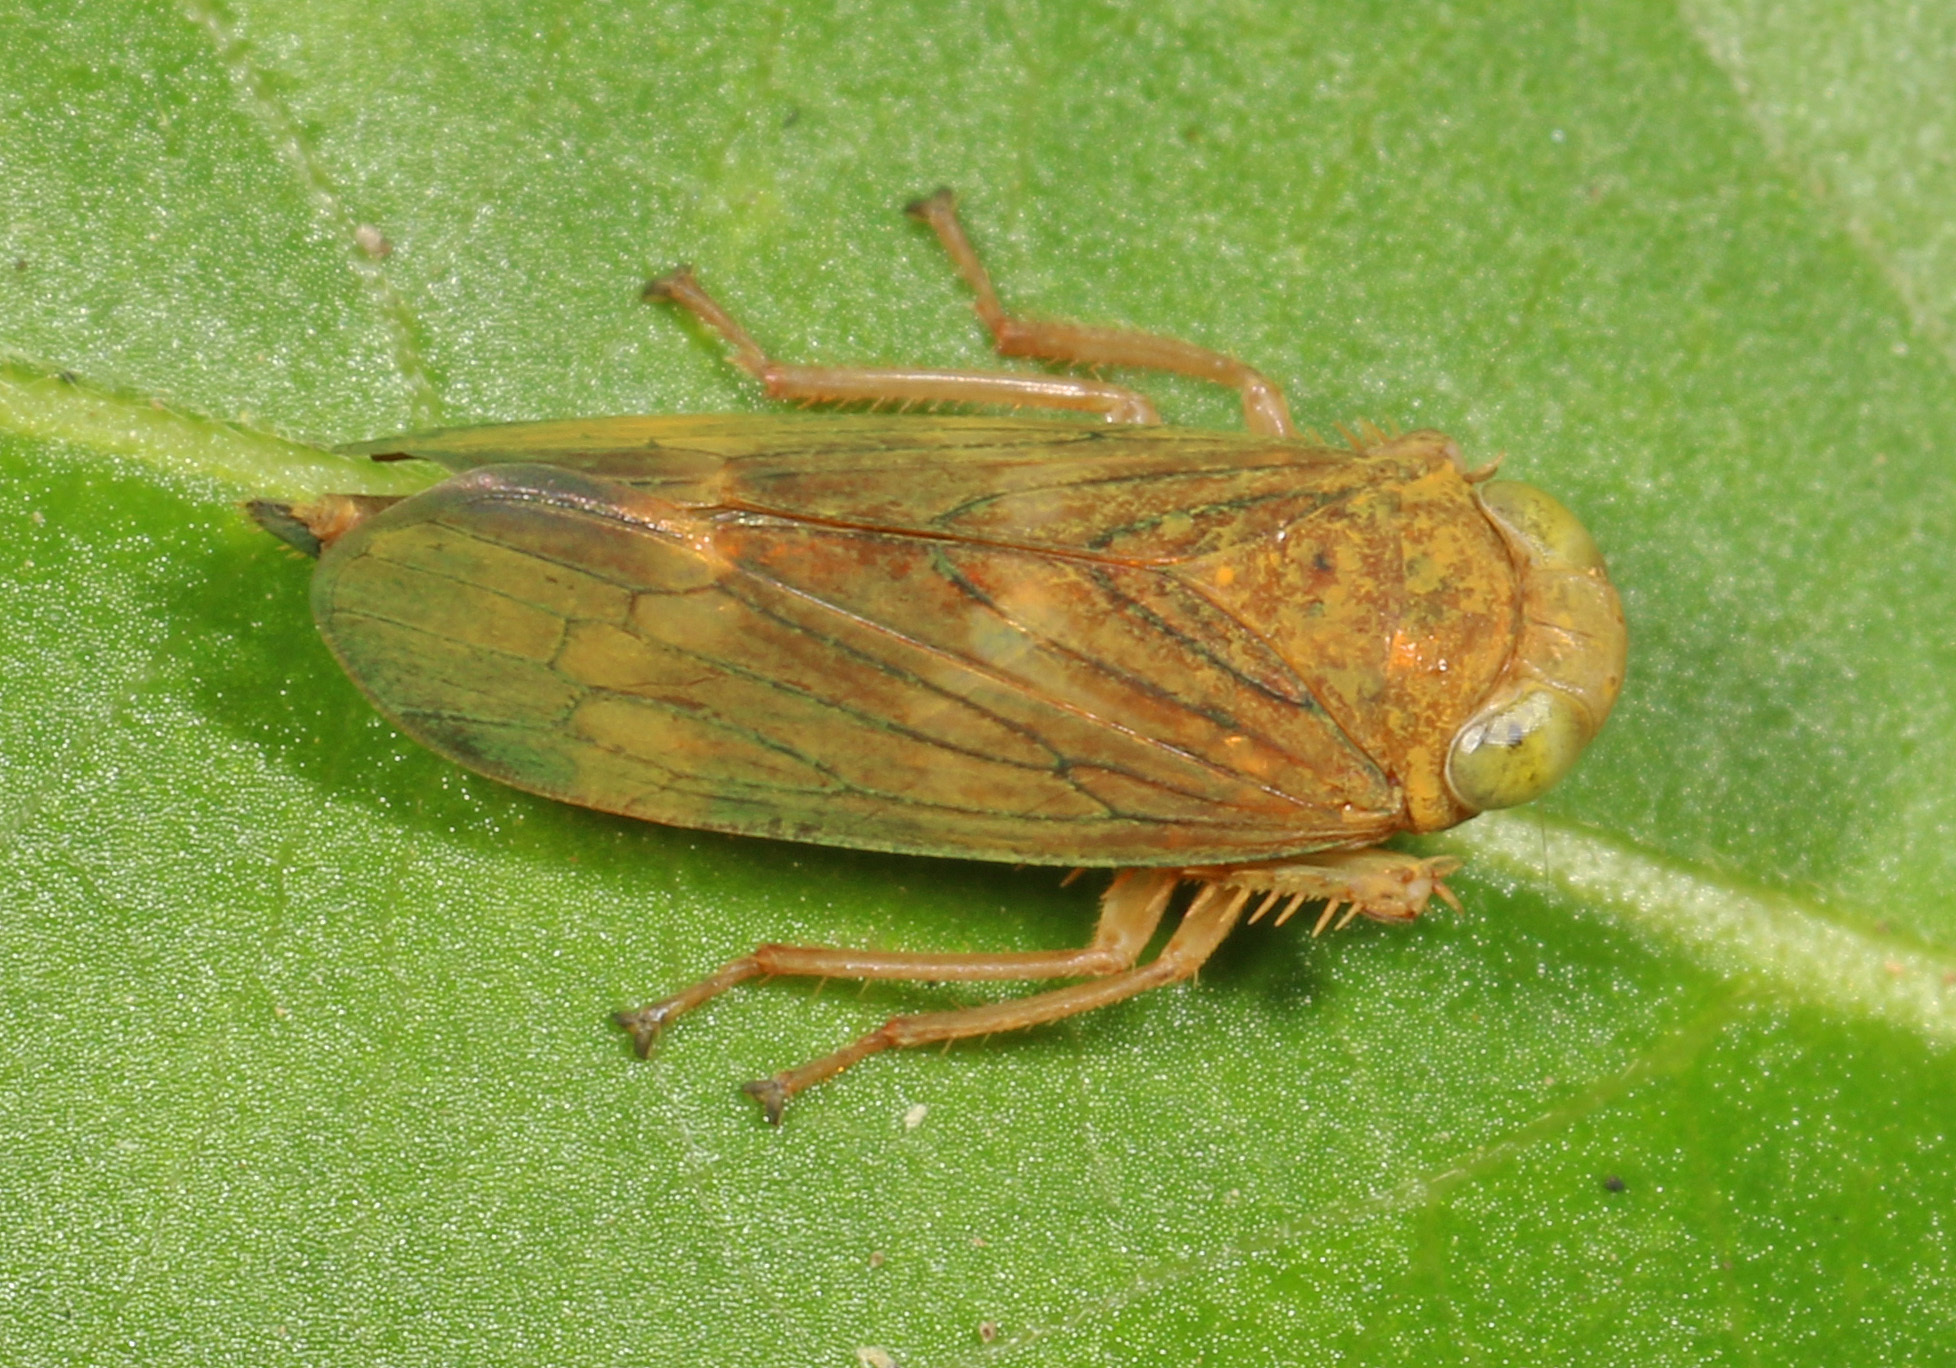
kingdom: Animalia
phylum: Arthropoda
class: Insecta
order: Hemiptera
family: Cicadellidae
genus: Jikradia
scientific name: Jikradia olitoria
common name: Coppery leafhopper
